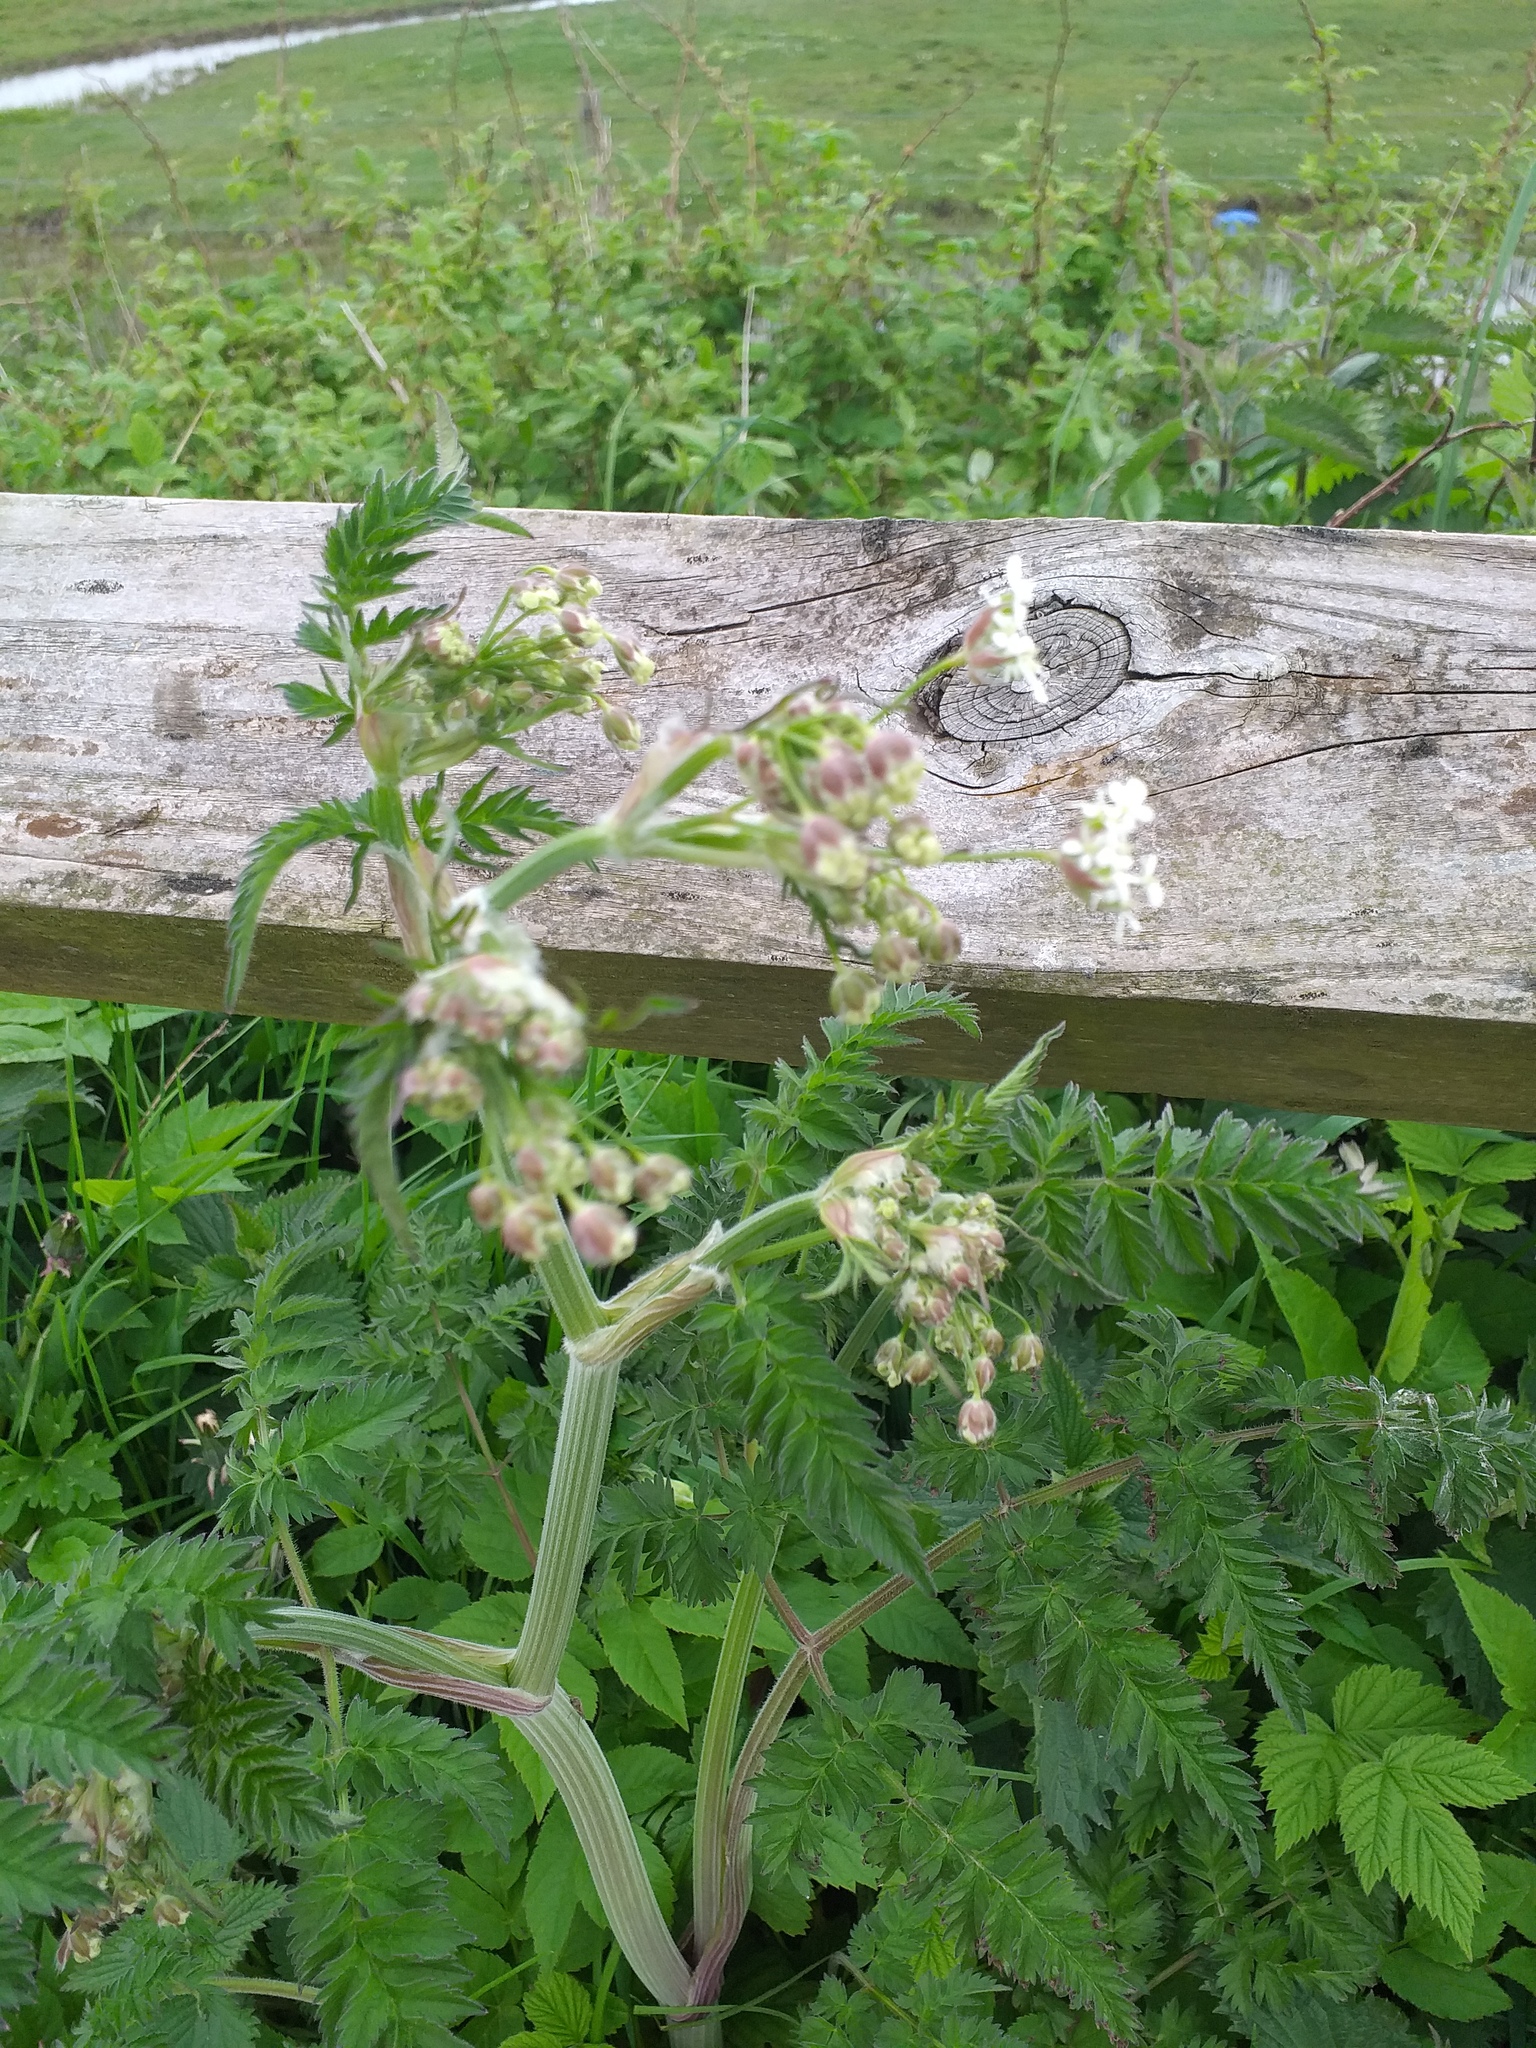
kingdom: Plantae
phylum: Tracheophyta
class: Magnoliopsida
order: Apiales
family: Apiaceae
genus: Anthriscus
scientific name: Anthriscus sylvestris
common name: Cow parsley
